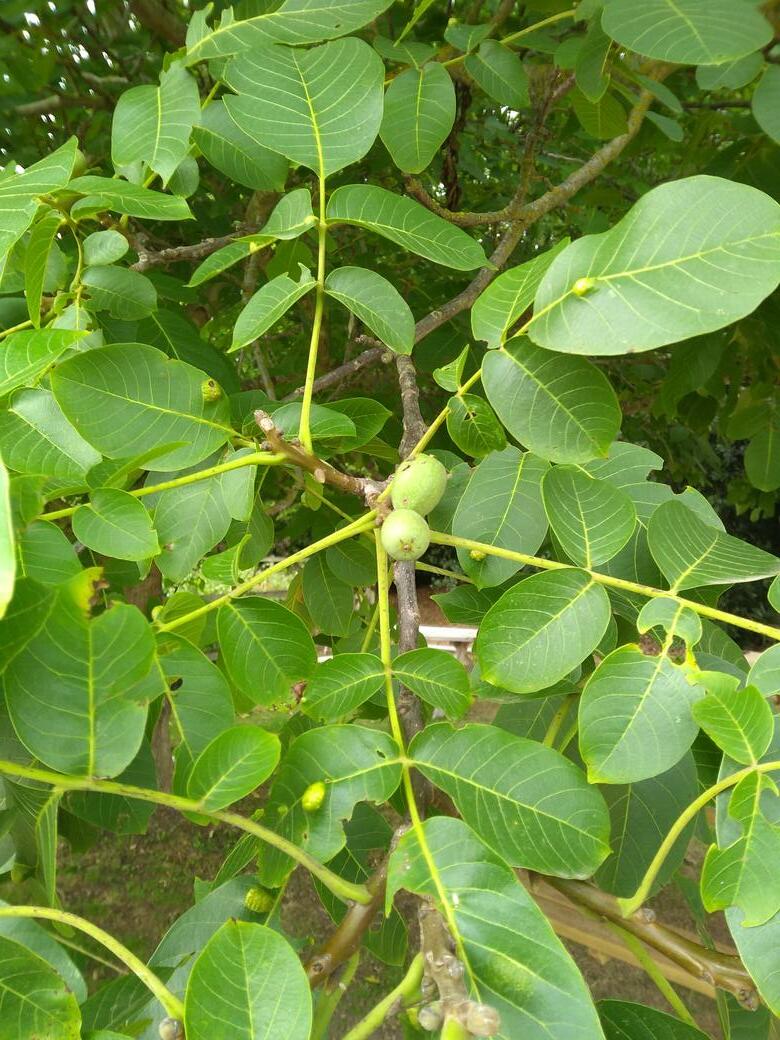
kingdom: Animalia
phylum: Arthropoda
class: Arachnida
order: Trombidiformes
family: Eriophyidae
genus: Aceria
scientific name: Aceria erinea
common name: Persian walnut erineum mite
